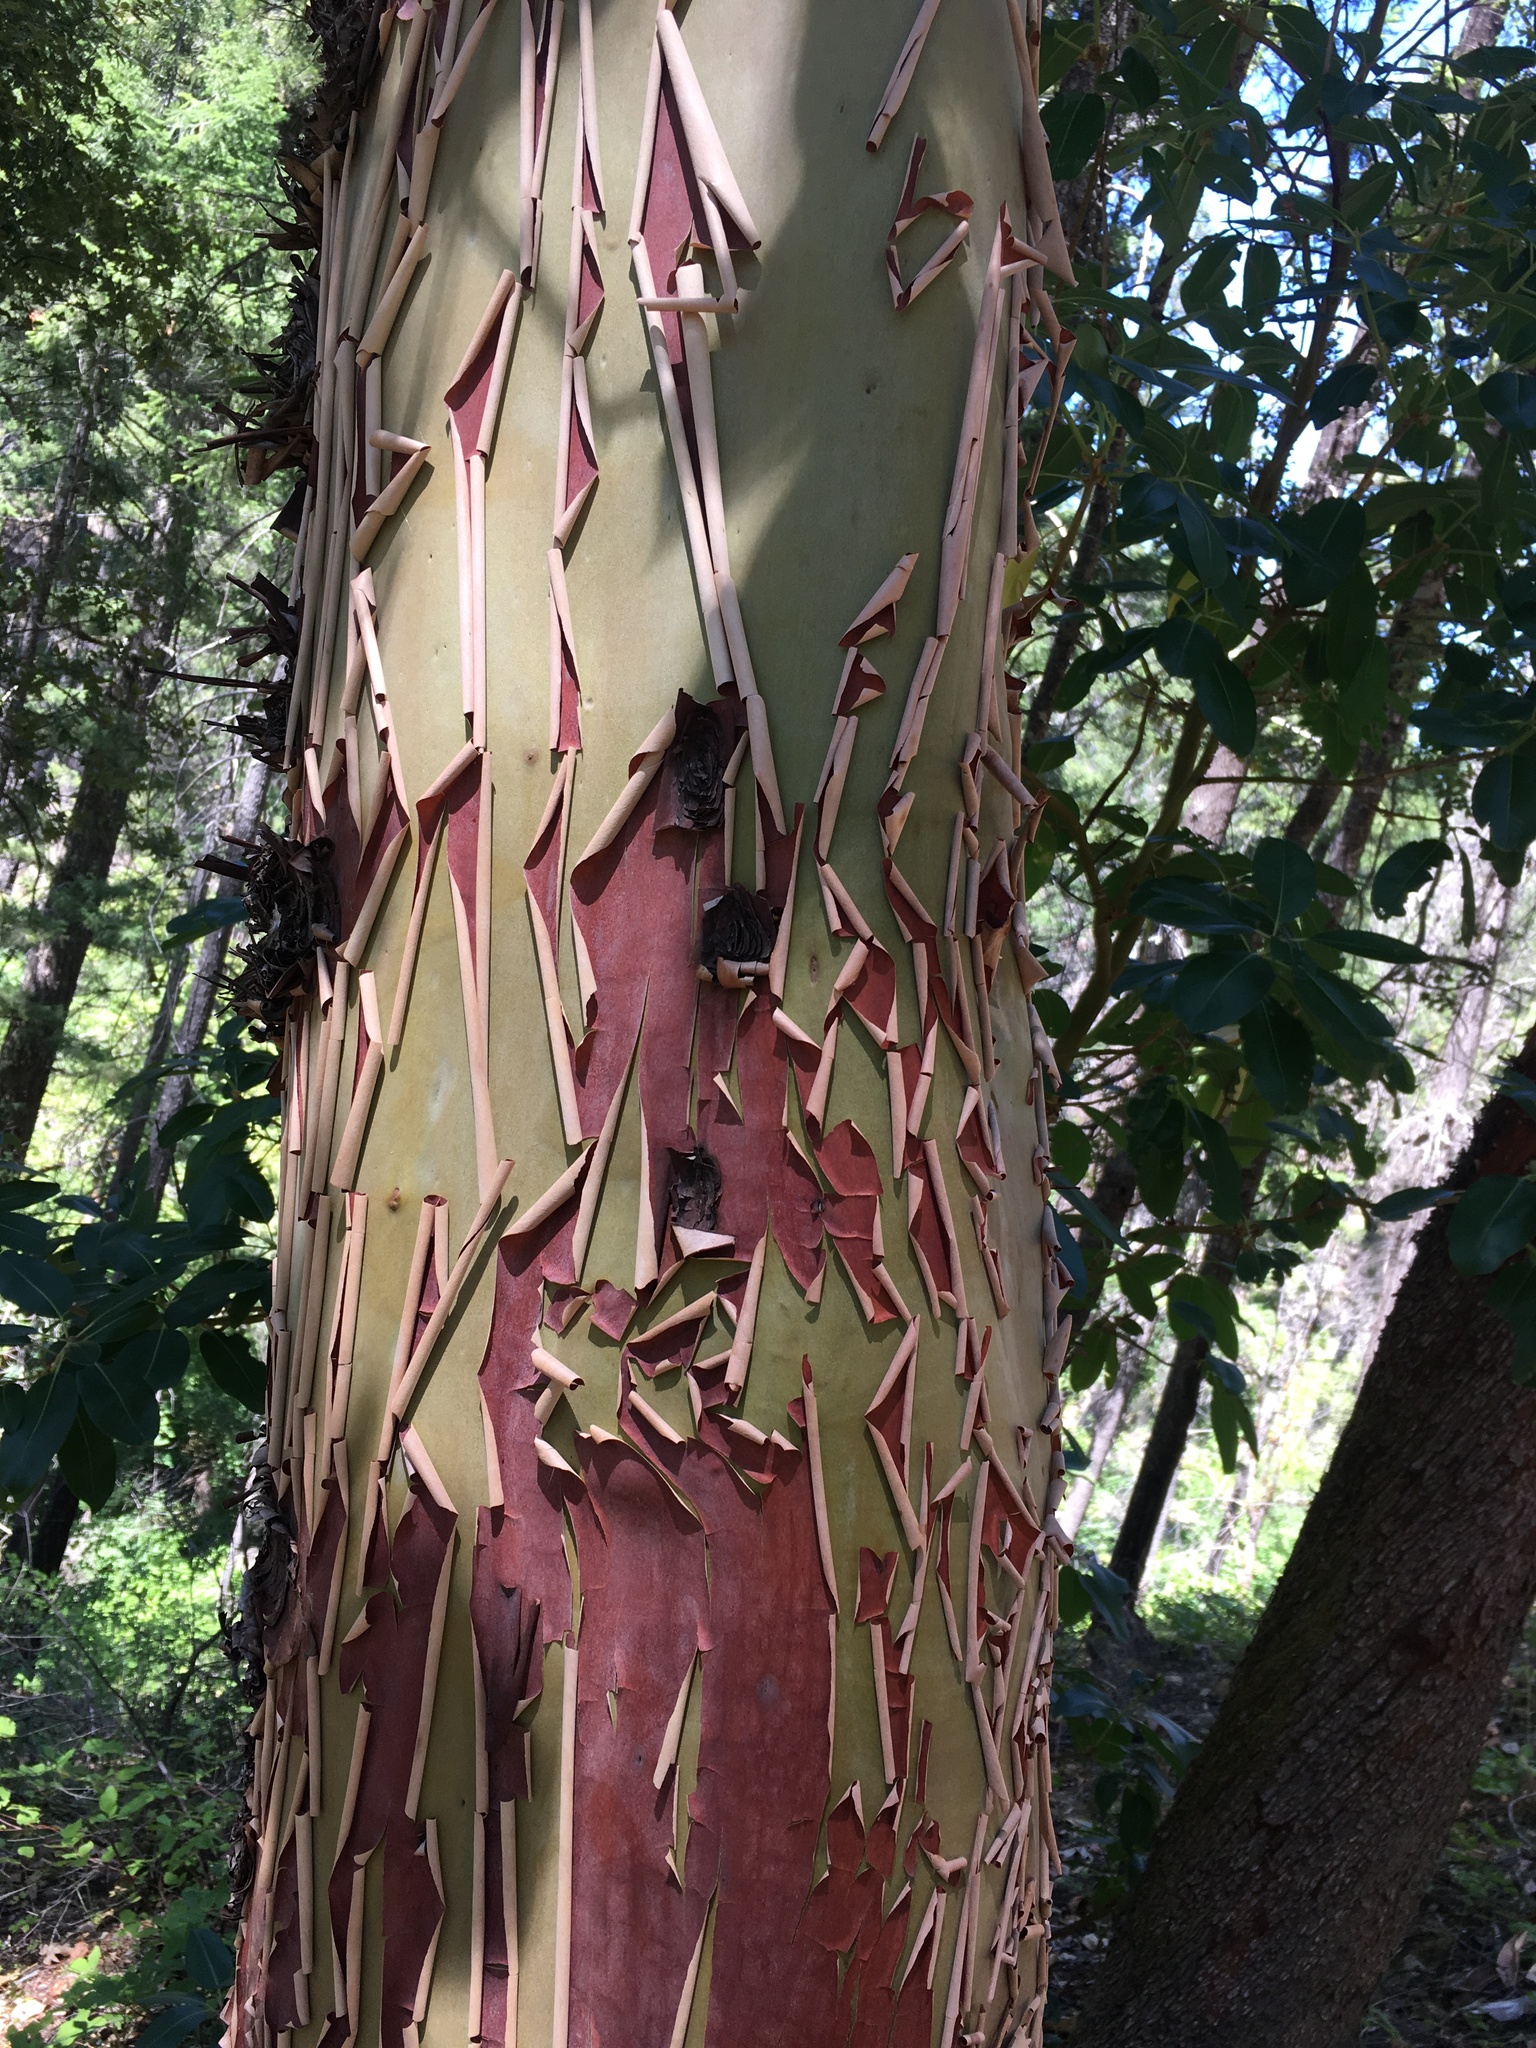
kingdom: Plantae
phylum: Tracheophyta
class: Magnoliopsida
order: Ericales
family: Ericaceae
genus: Arbutus
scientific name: Arbutus menziesii
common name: Pacific madrone
